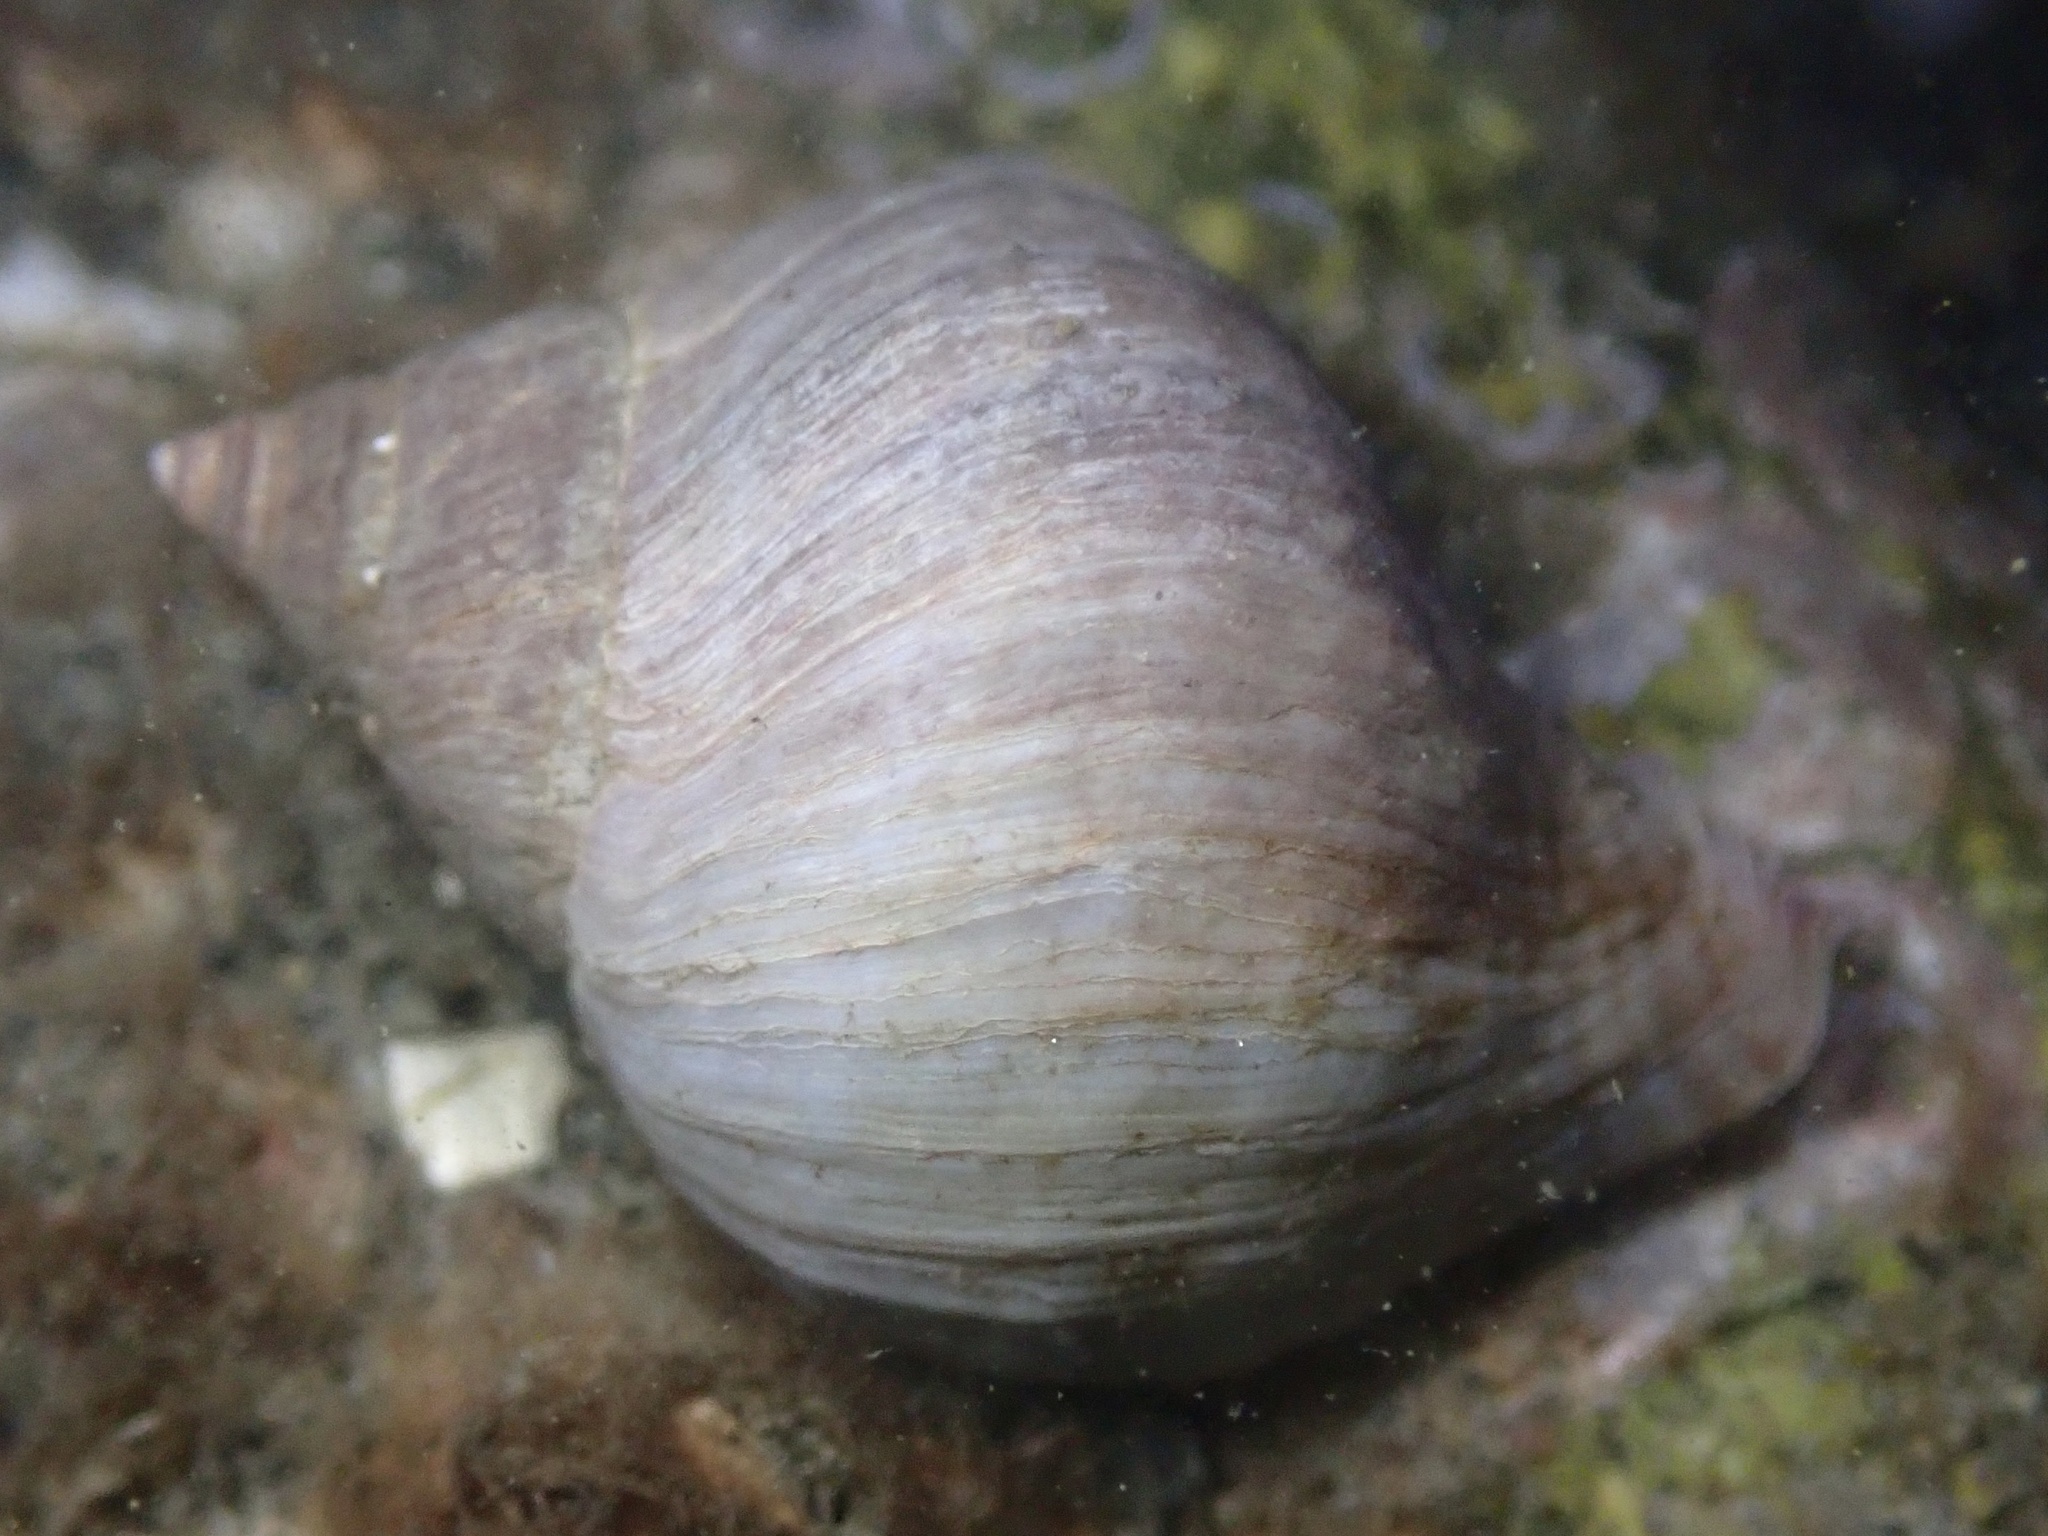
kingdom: Animalia
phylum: Mollusca
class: Gastropoda
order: Neogastropoda
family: Muricidae
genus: Nucella
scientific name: Nucella lamellosa
